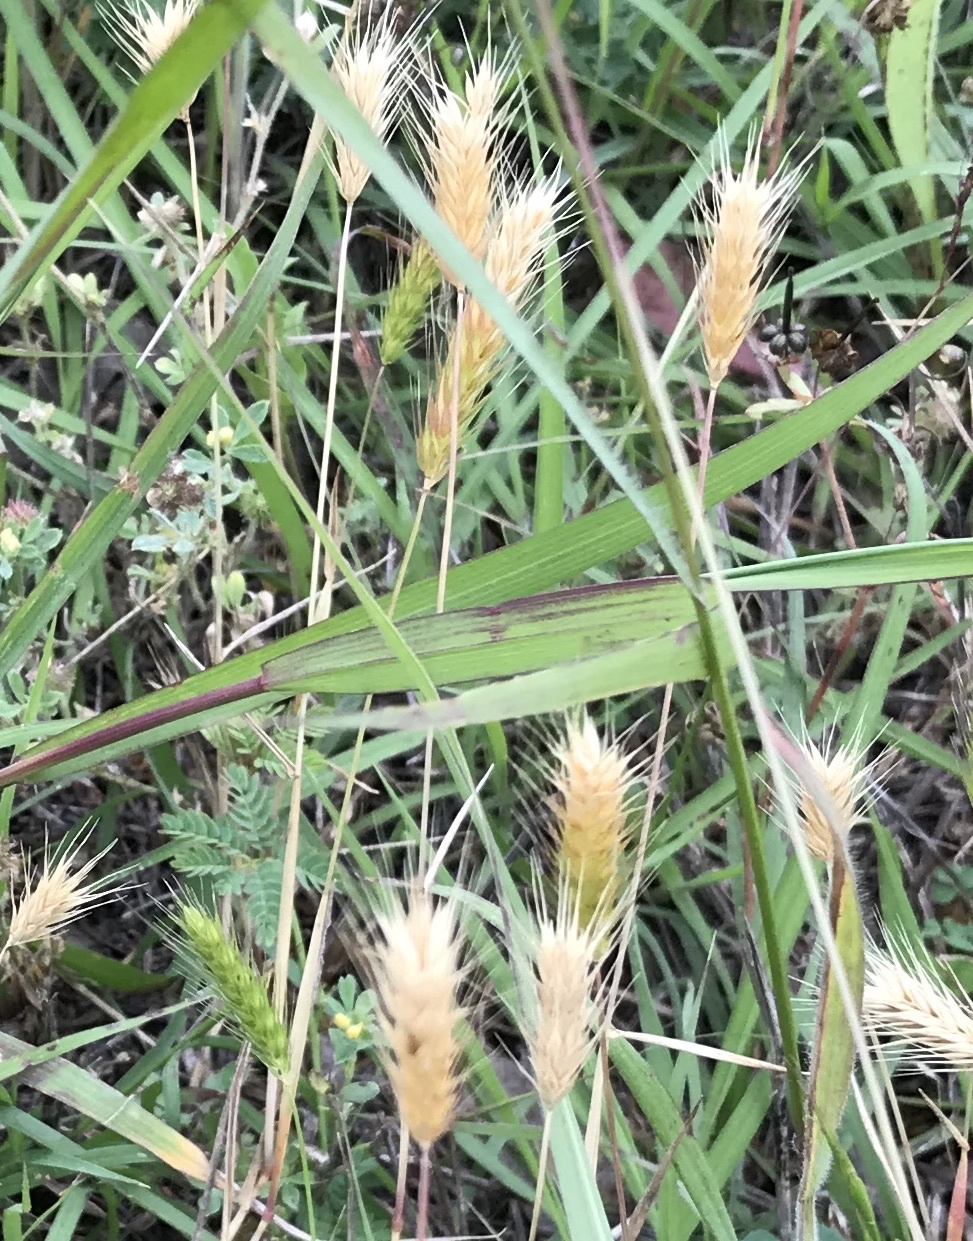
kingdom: Plantae
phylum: Tracheophyta
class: Liliopsida
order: Poales
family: Poaceae
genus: Hordeum
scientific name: Hordeum pusillum
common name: Little barley
